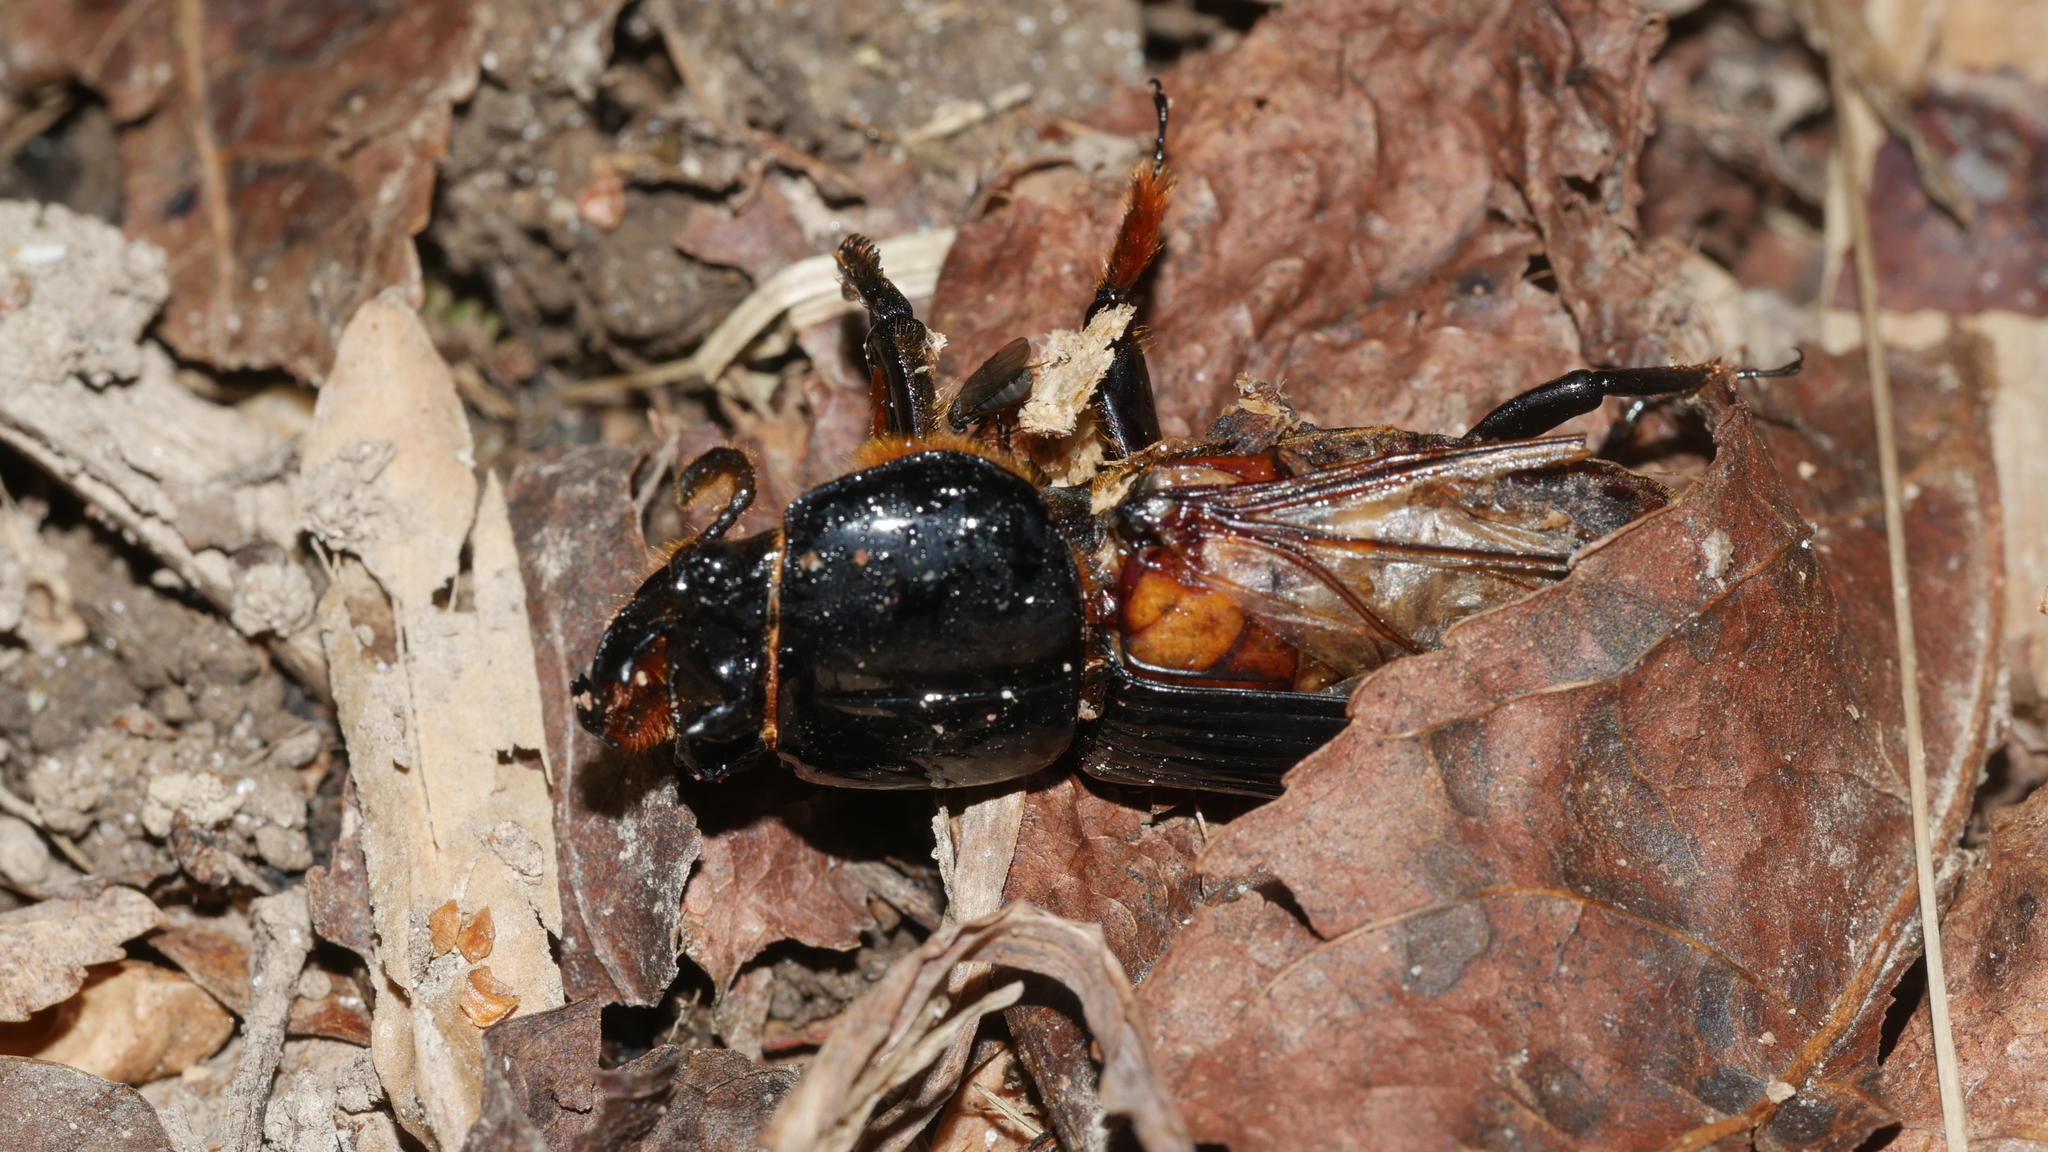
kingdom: Animalia
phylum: Arthropoda
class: Insecta
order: Coleoptera
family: Passalidae
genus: Odontotaenius
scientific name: Odontotaenius disjunctus
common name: Patent leather beetle
